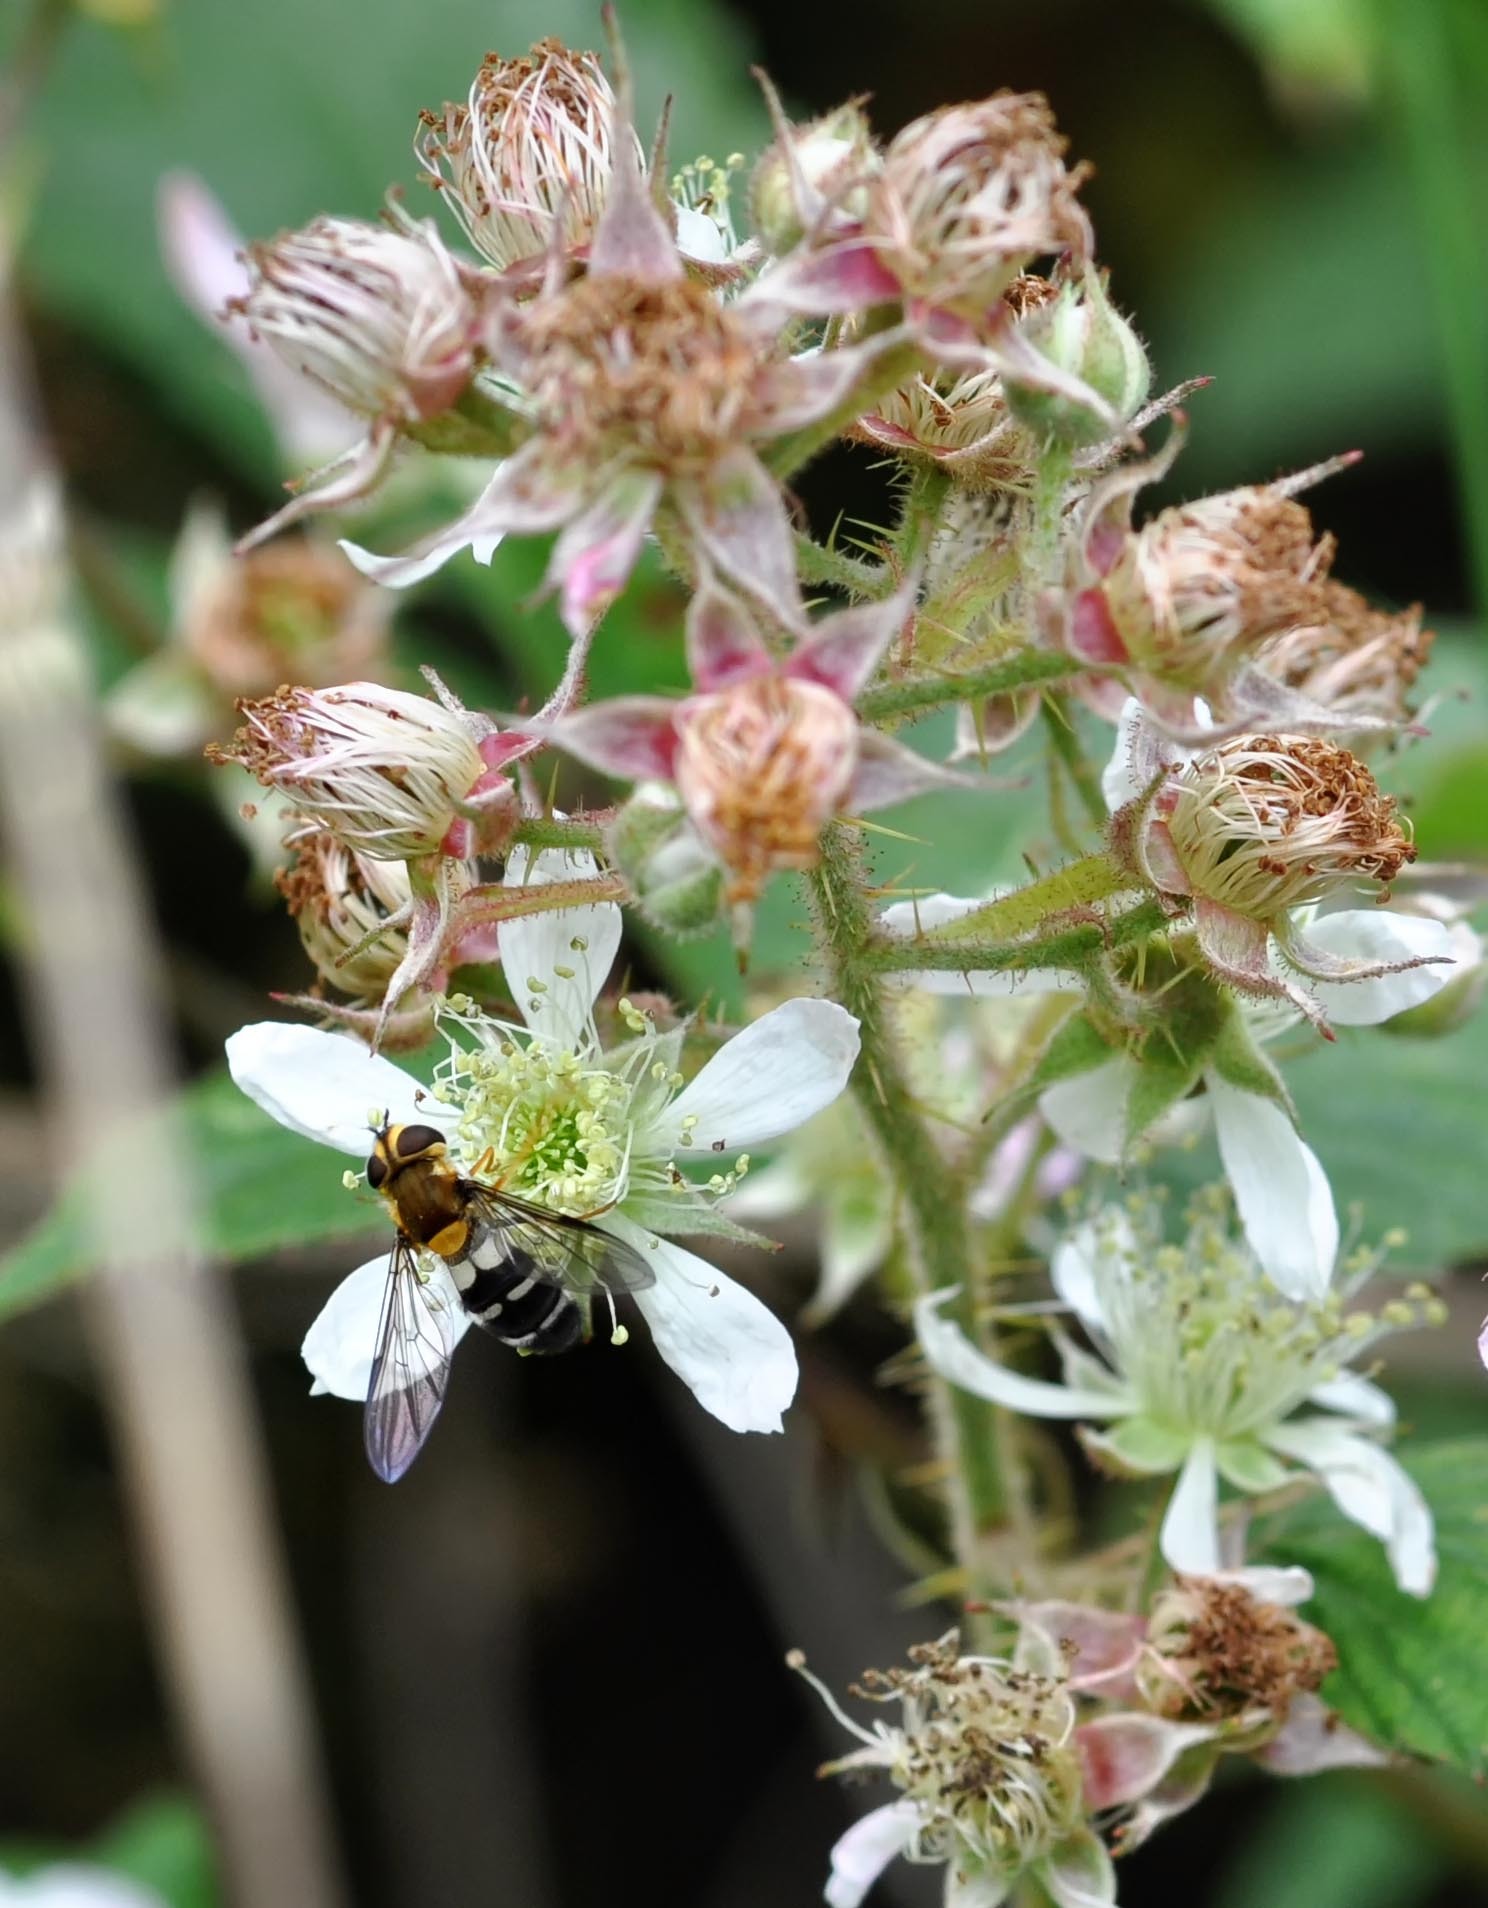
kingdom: Animalia
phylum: Arthropoda
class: Insecta
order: Diptera
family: Syrphidae
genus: Leucozona
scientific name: Leucozona glaucia
